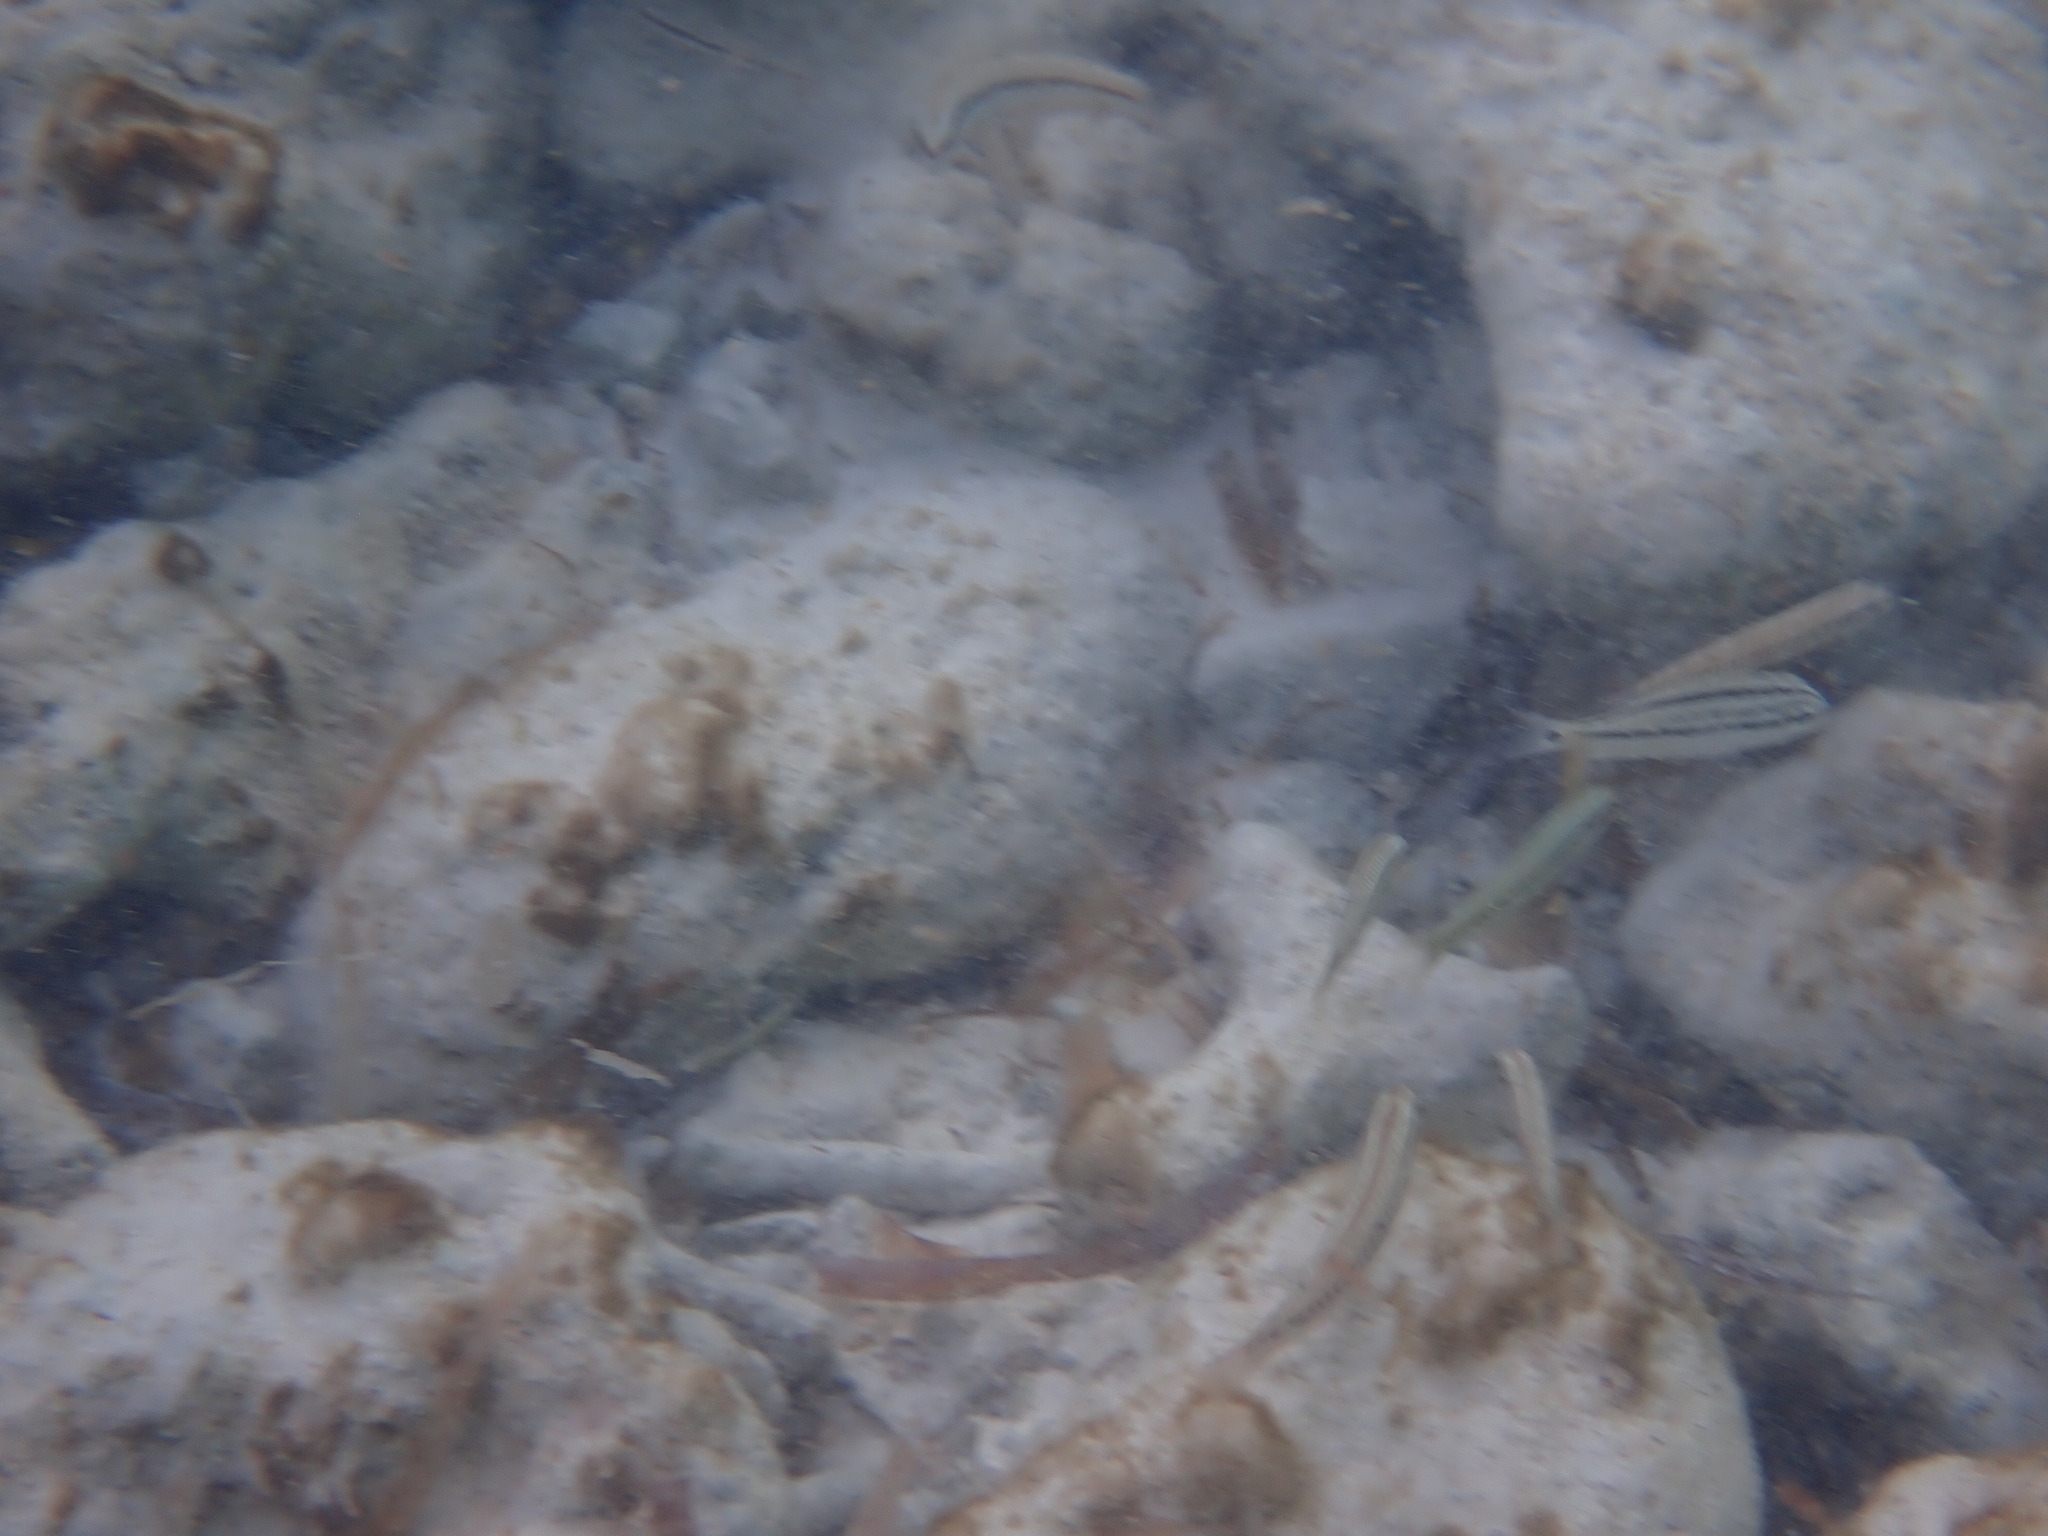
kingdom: Animalia
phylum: Chordata
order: Perciformes
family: Haemulidae
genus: Haemulon
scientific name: Haemulon parra
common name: Sailor's choice
